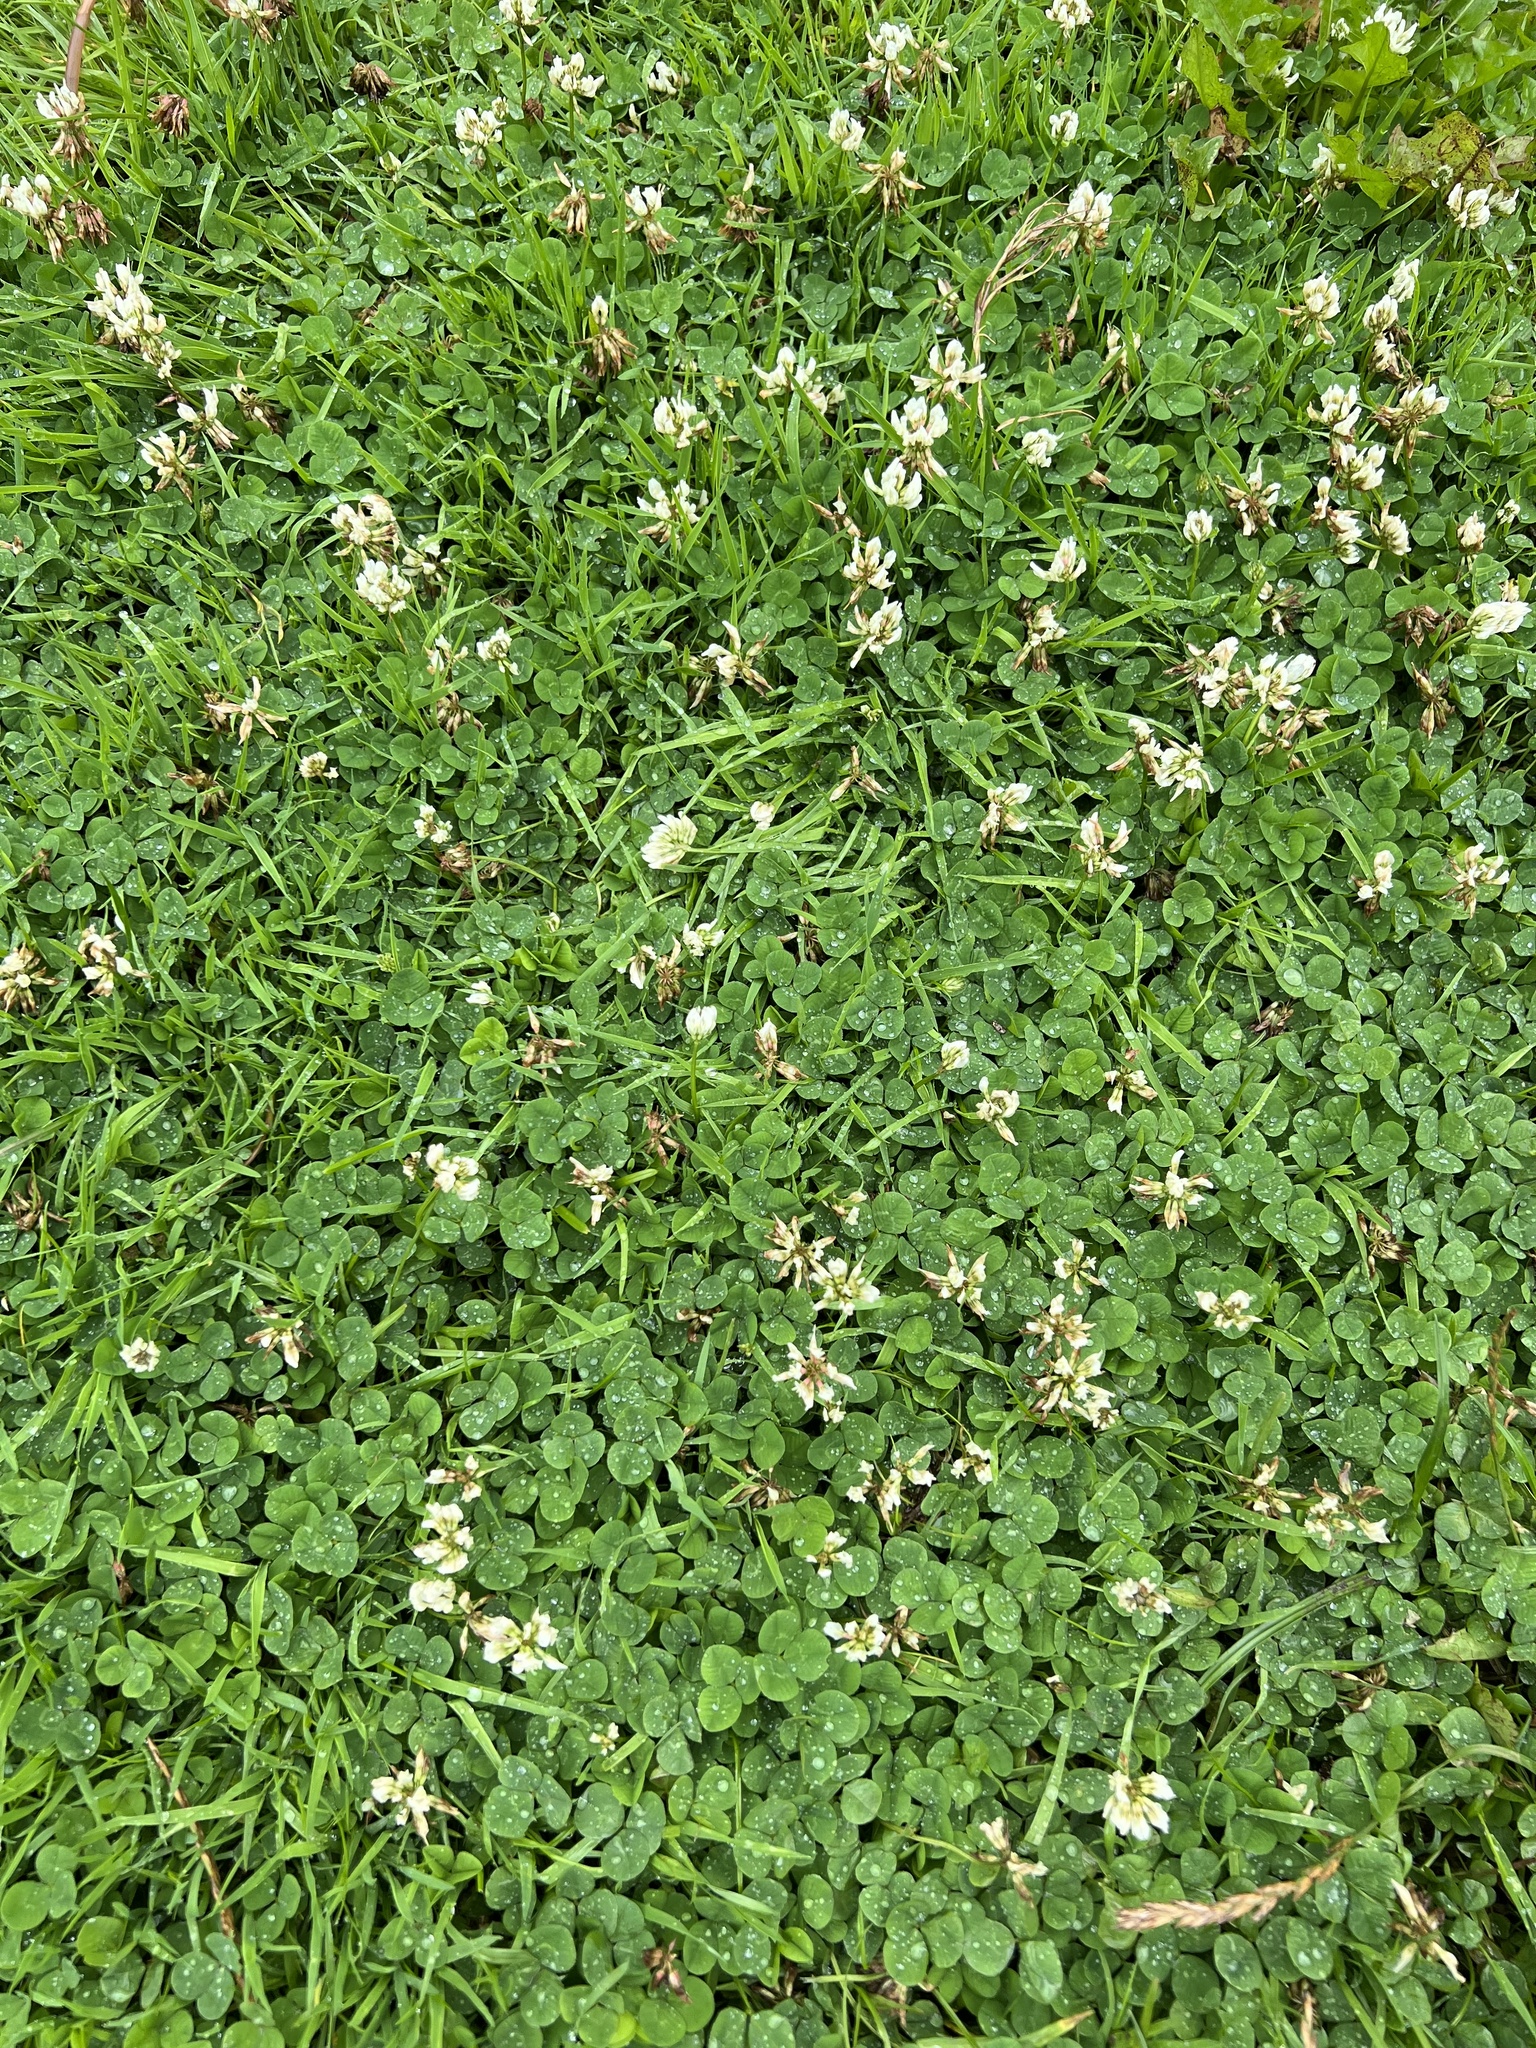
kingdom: Plantae
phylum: Tracheophyta
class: Magnoliopsida
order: Fabales
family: Fabaceae
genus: Trifolium
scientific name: Trifolium repens
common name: White clover
